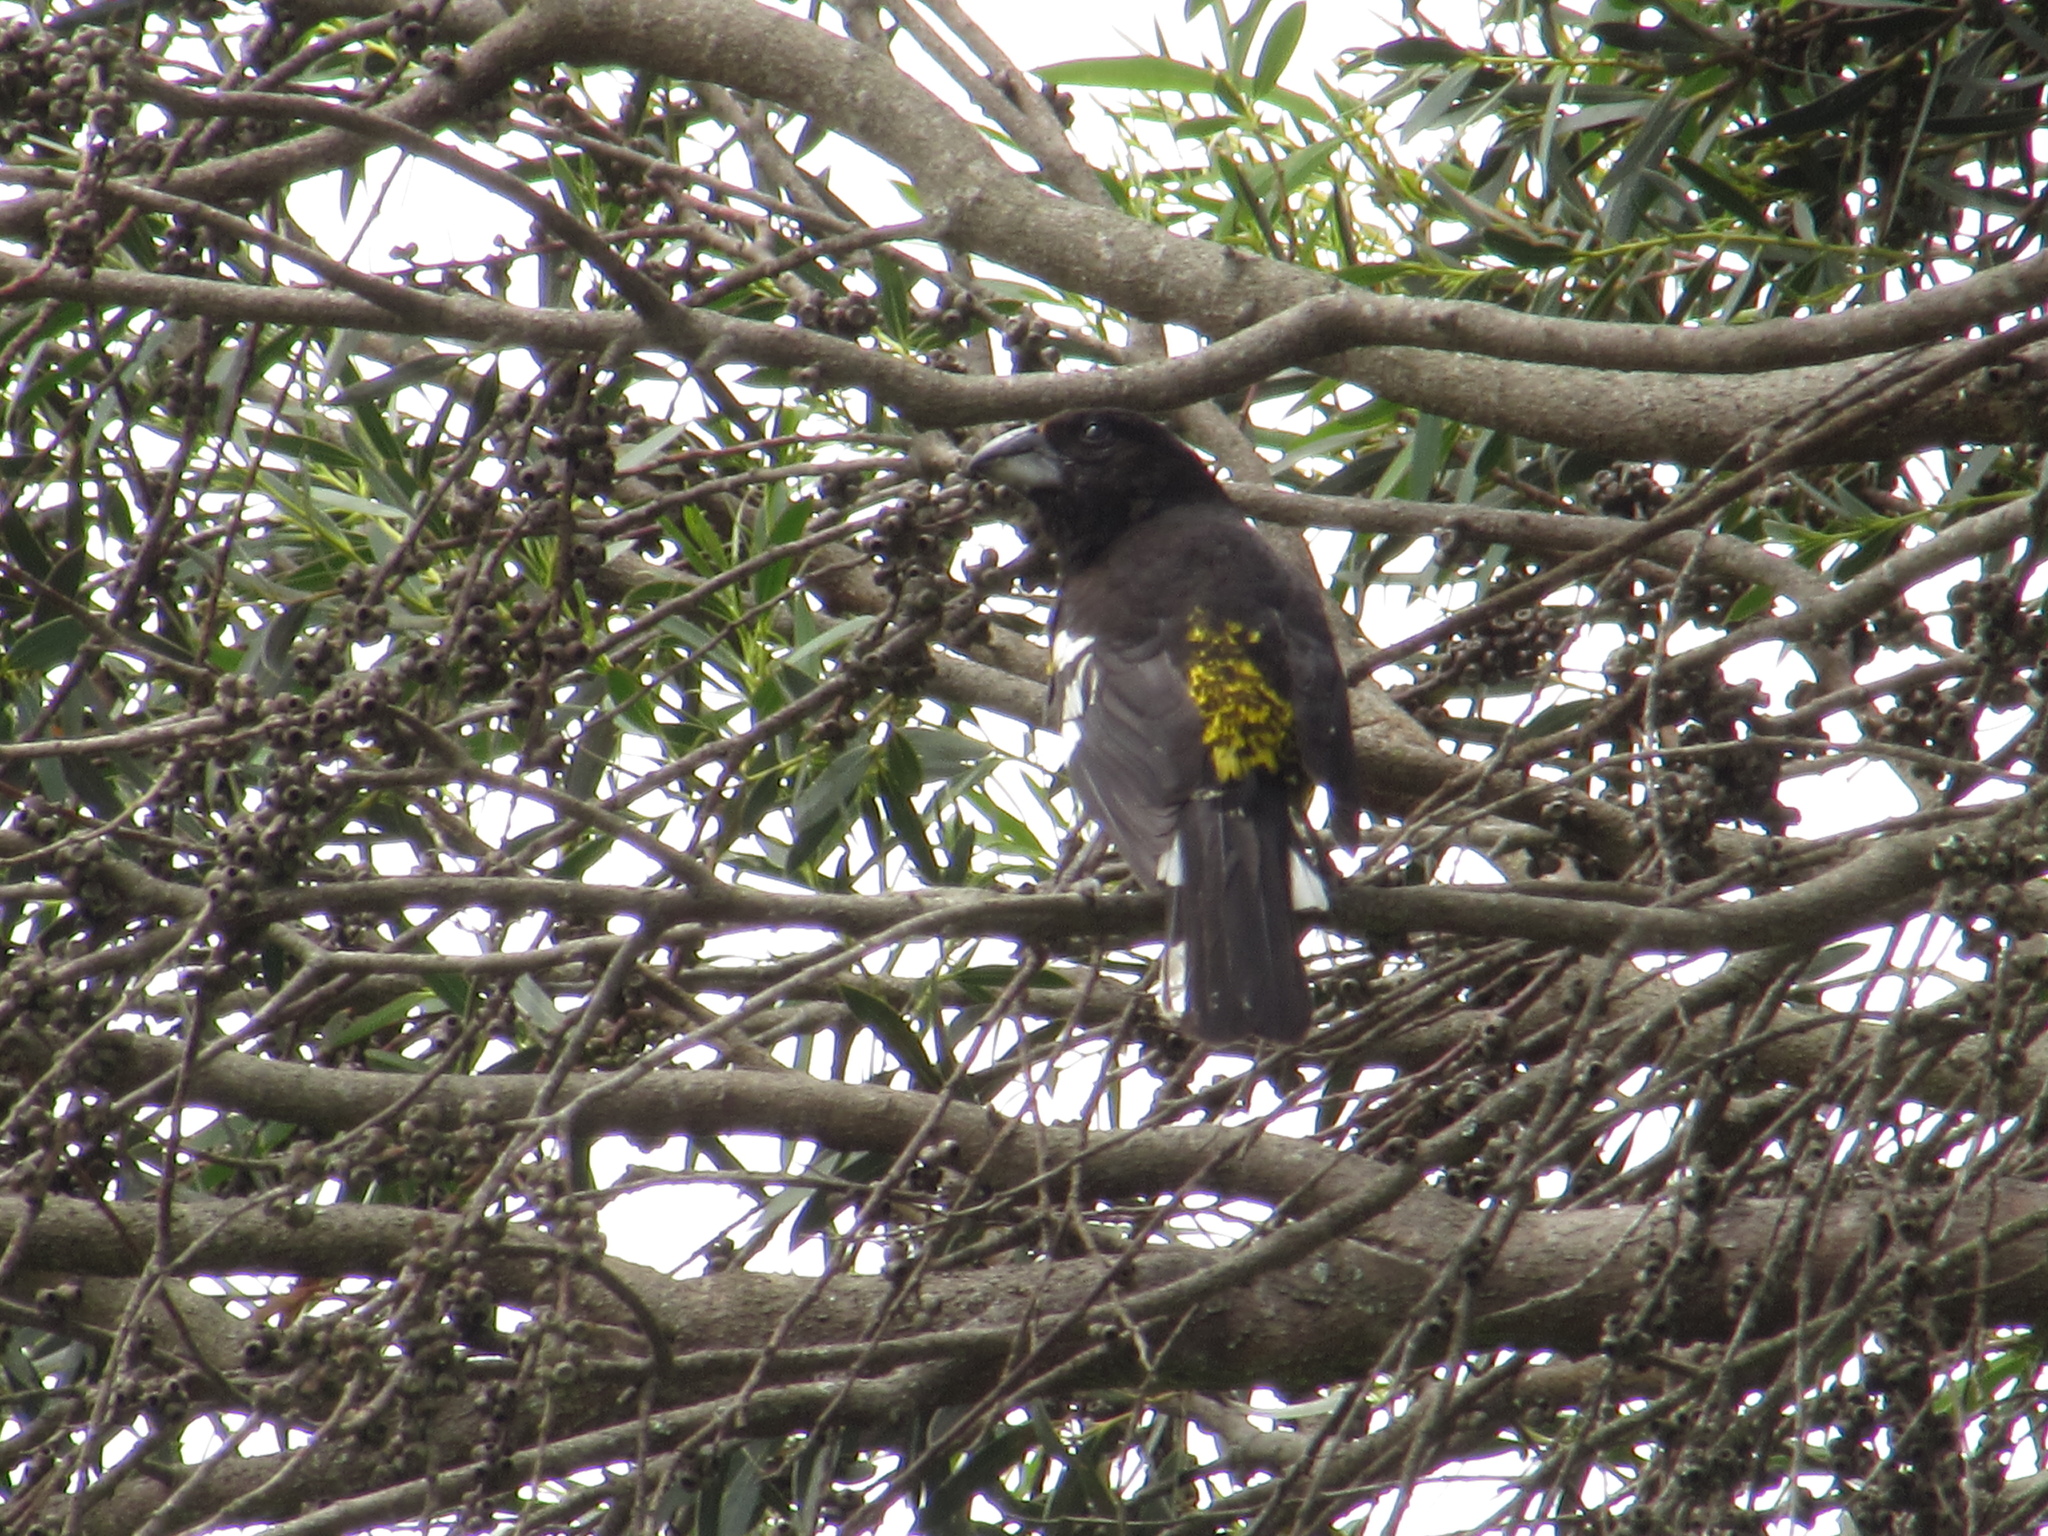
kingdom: Animalia
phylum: Chordata
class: Aves
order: Passeriformes
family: Cardinalidae
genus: Pheucticus
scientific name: Pheucticus aureoventris
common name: Black-backed grosbeak
